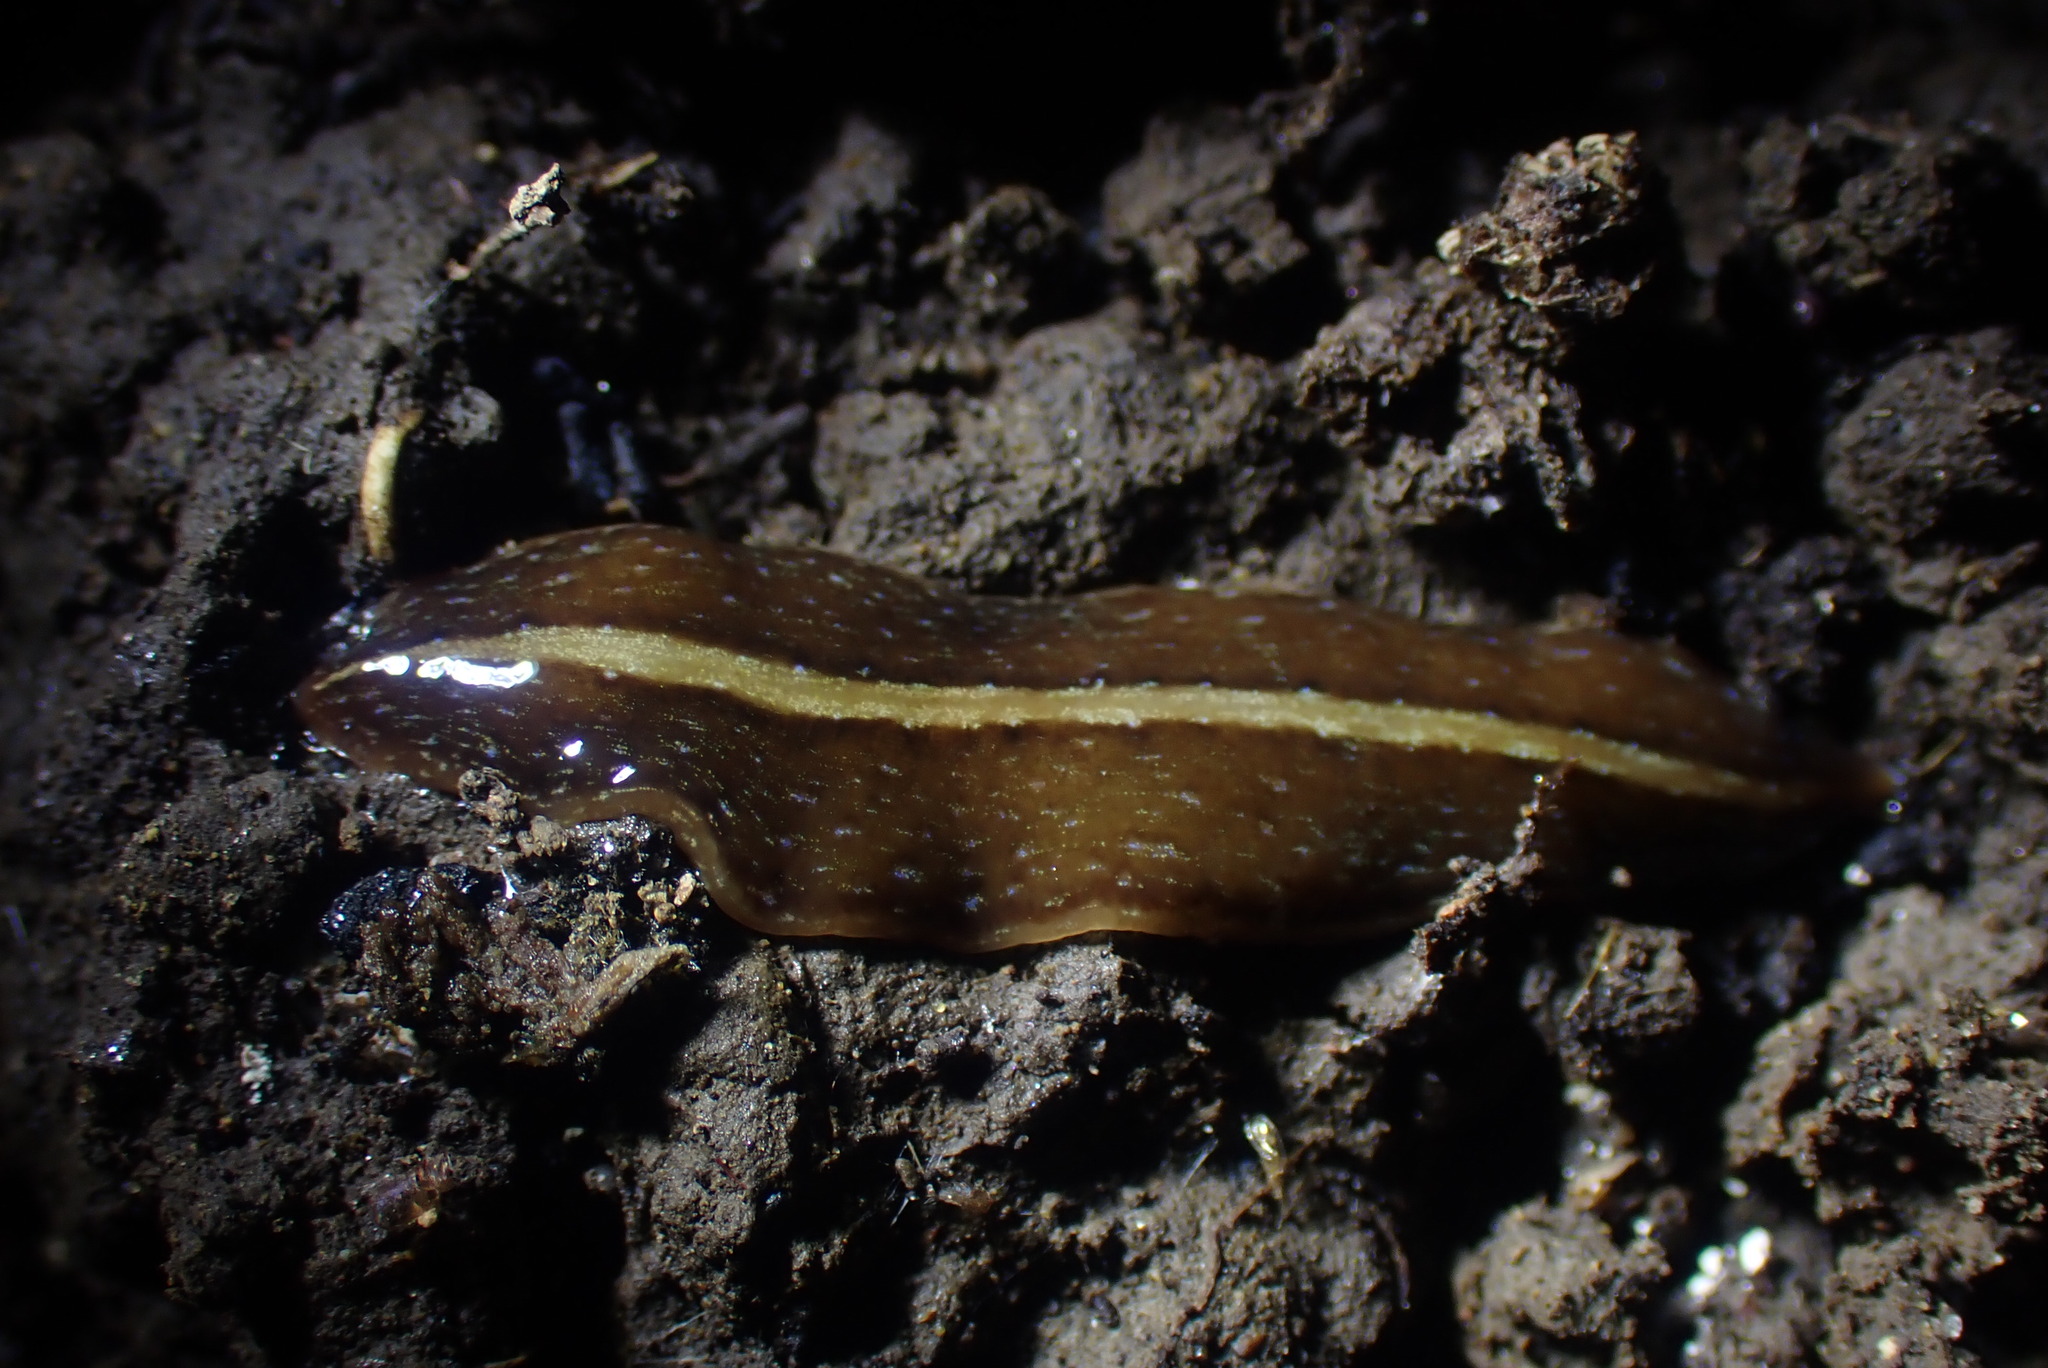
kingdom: Animalia
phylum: Platyhelminthes
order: Tricladida
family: Geoplanidae
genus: Newzealandia
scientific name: Newzealandia graffii
